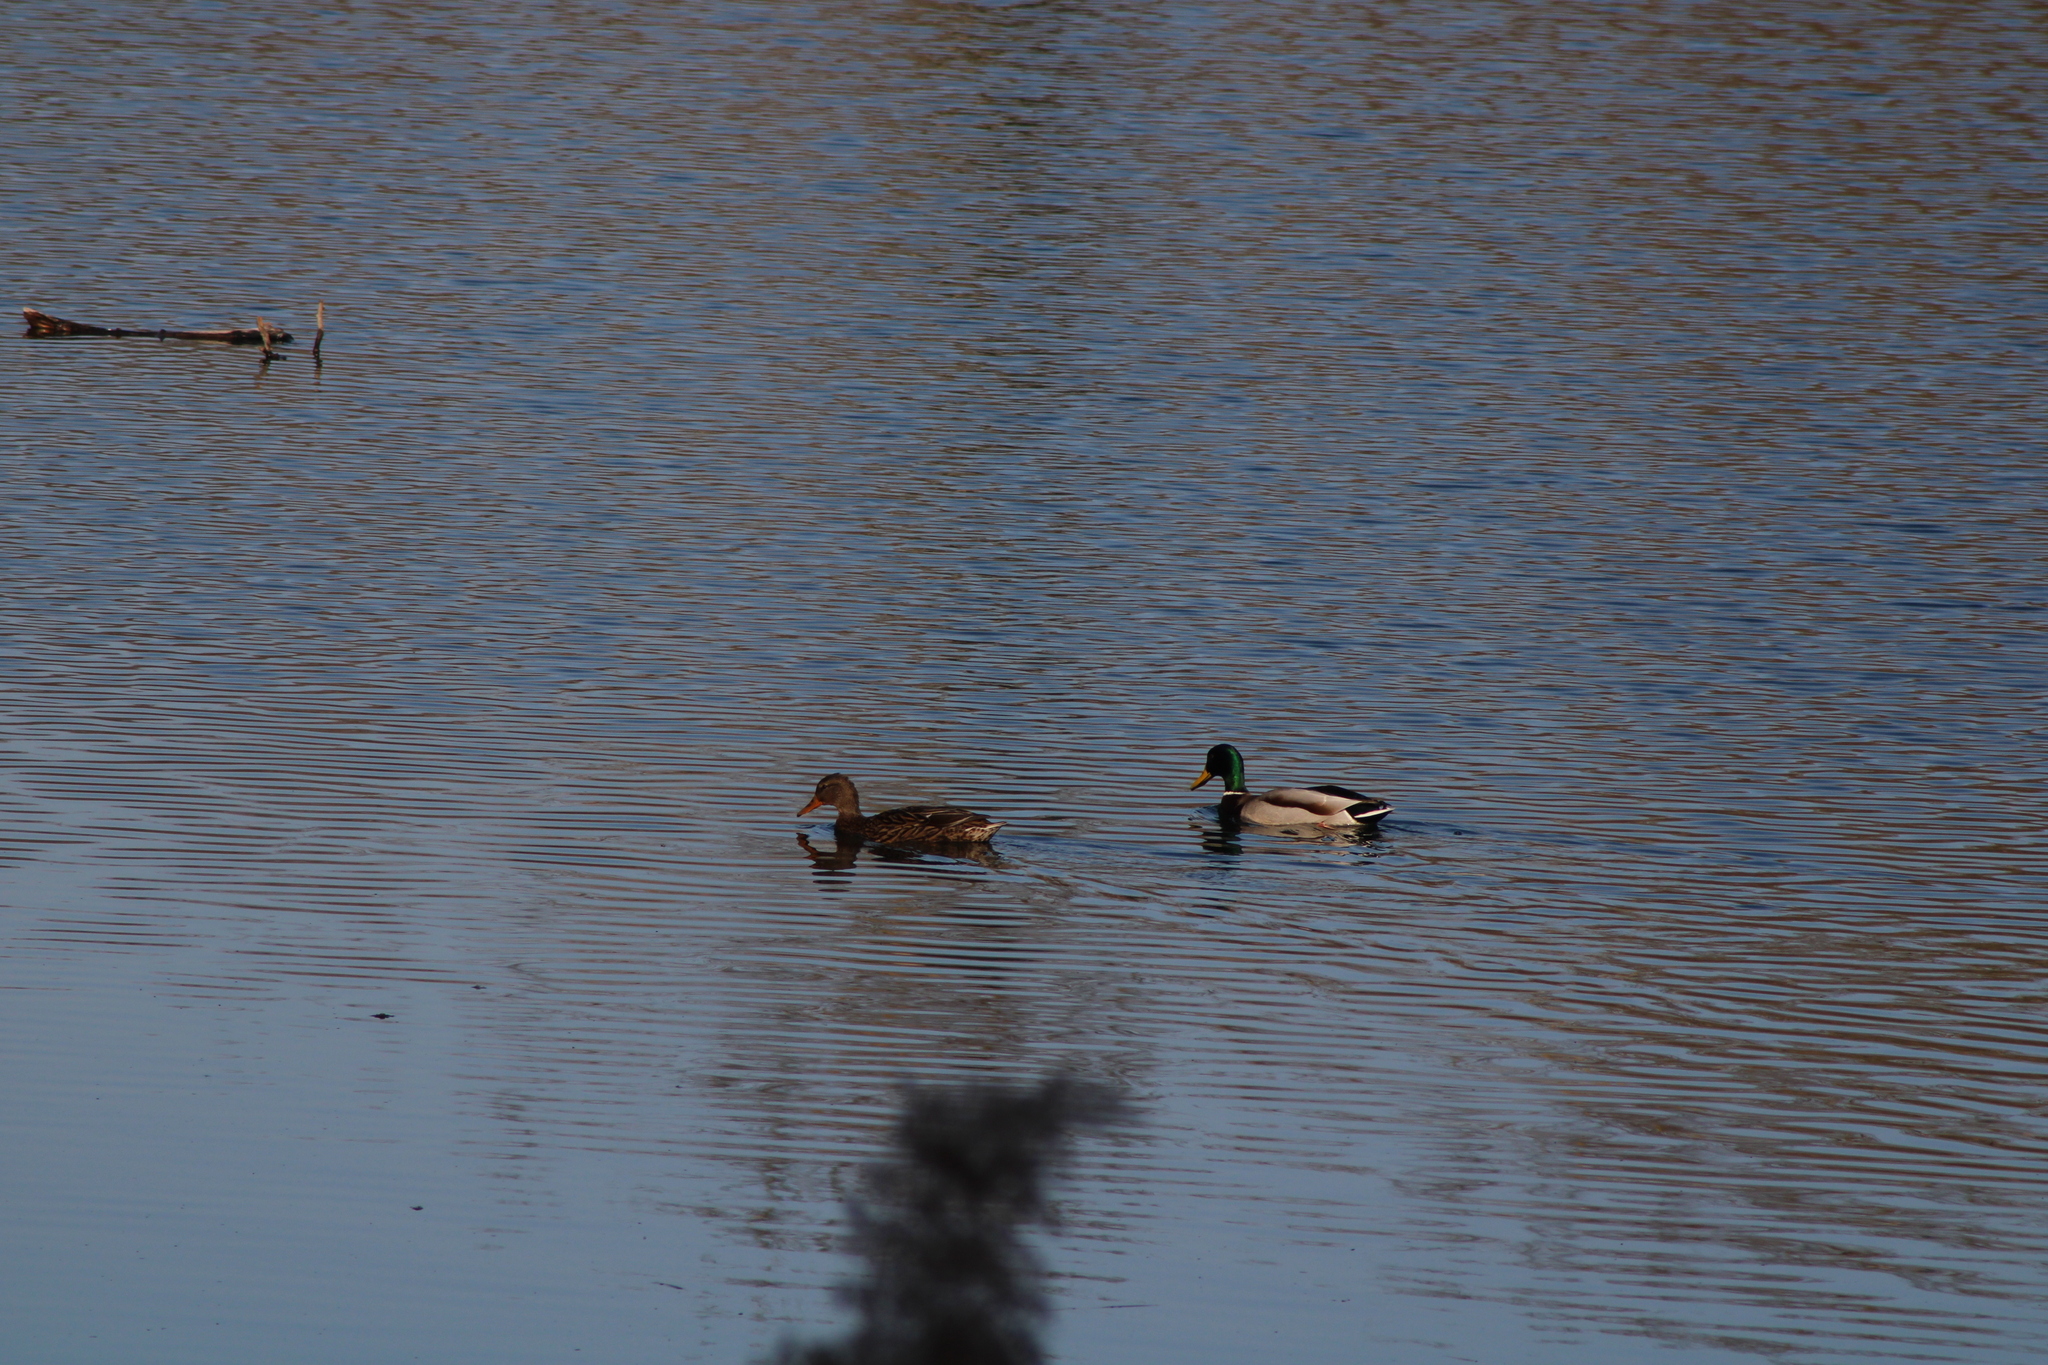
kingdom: Animalia
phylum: Chordata
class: Aves
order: Anseriformes
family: Anatidae
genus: Anas
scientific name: Anas platyrhynchos
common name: Mallard
